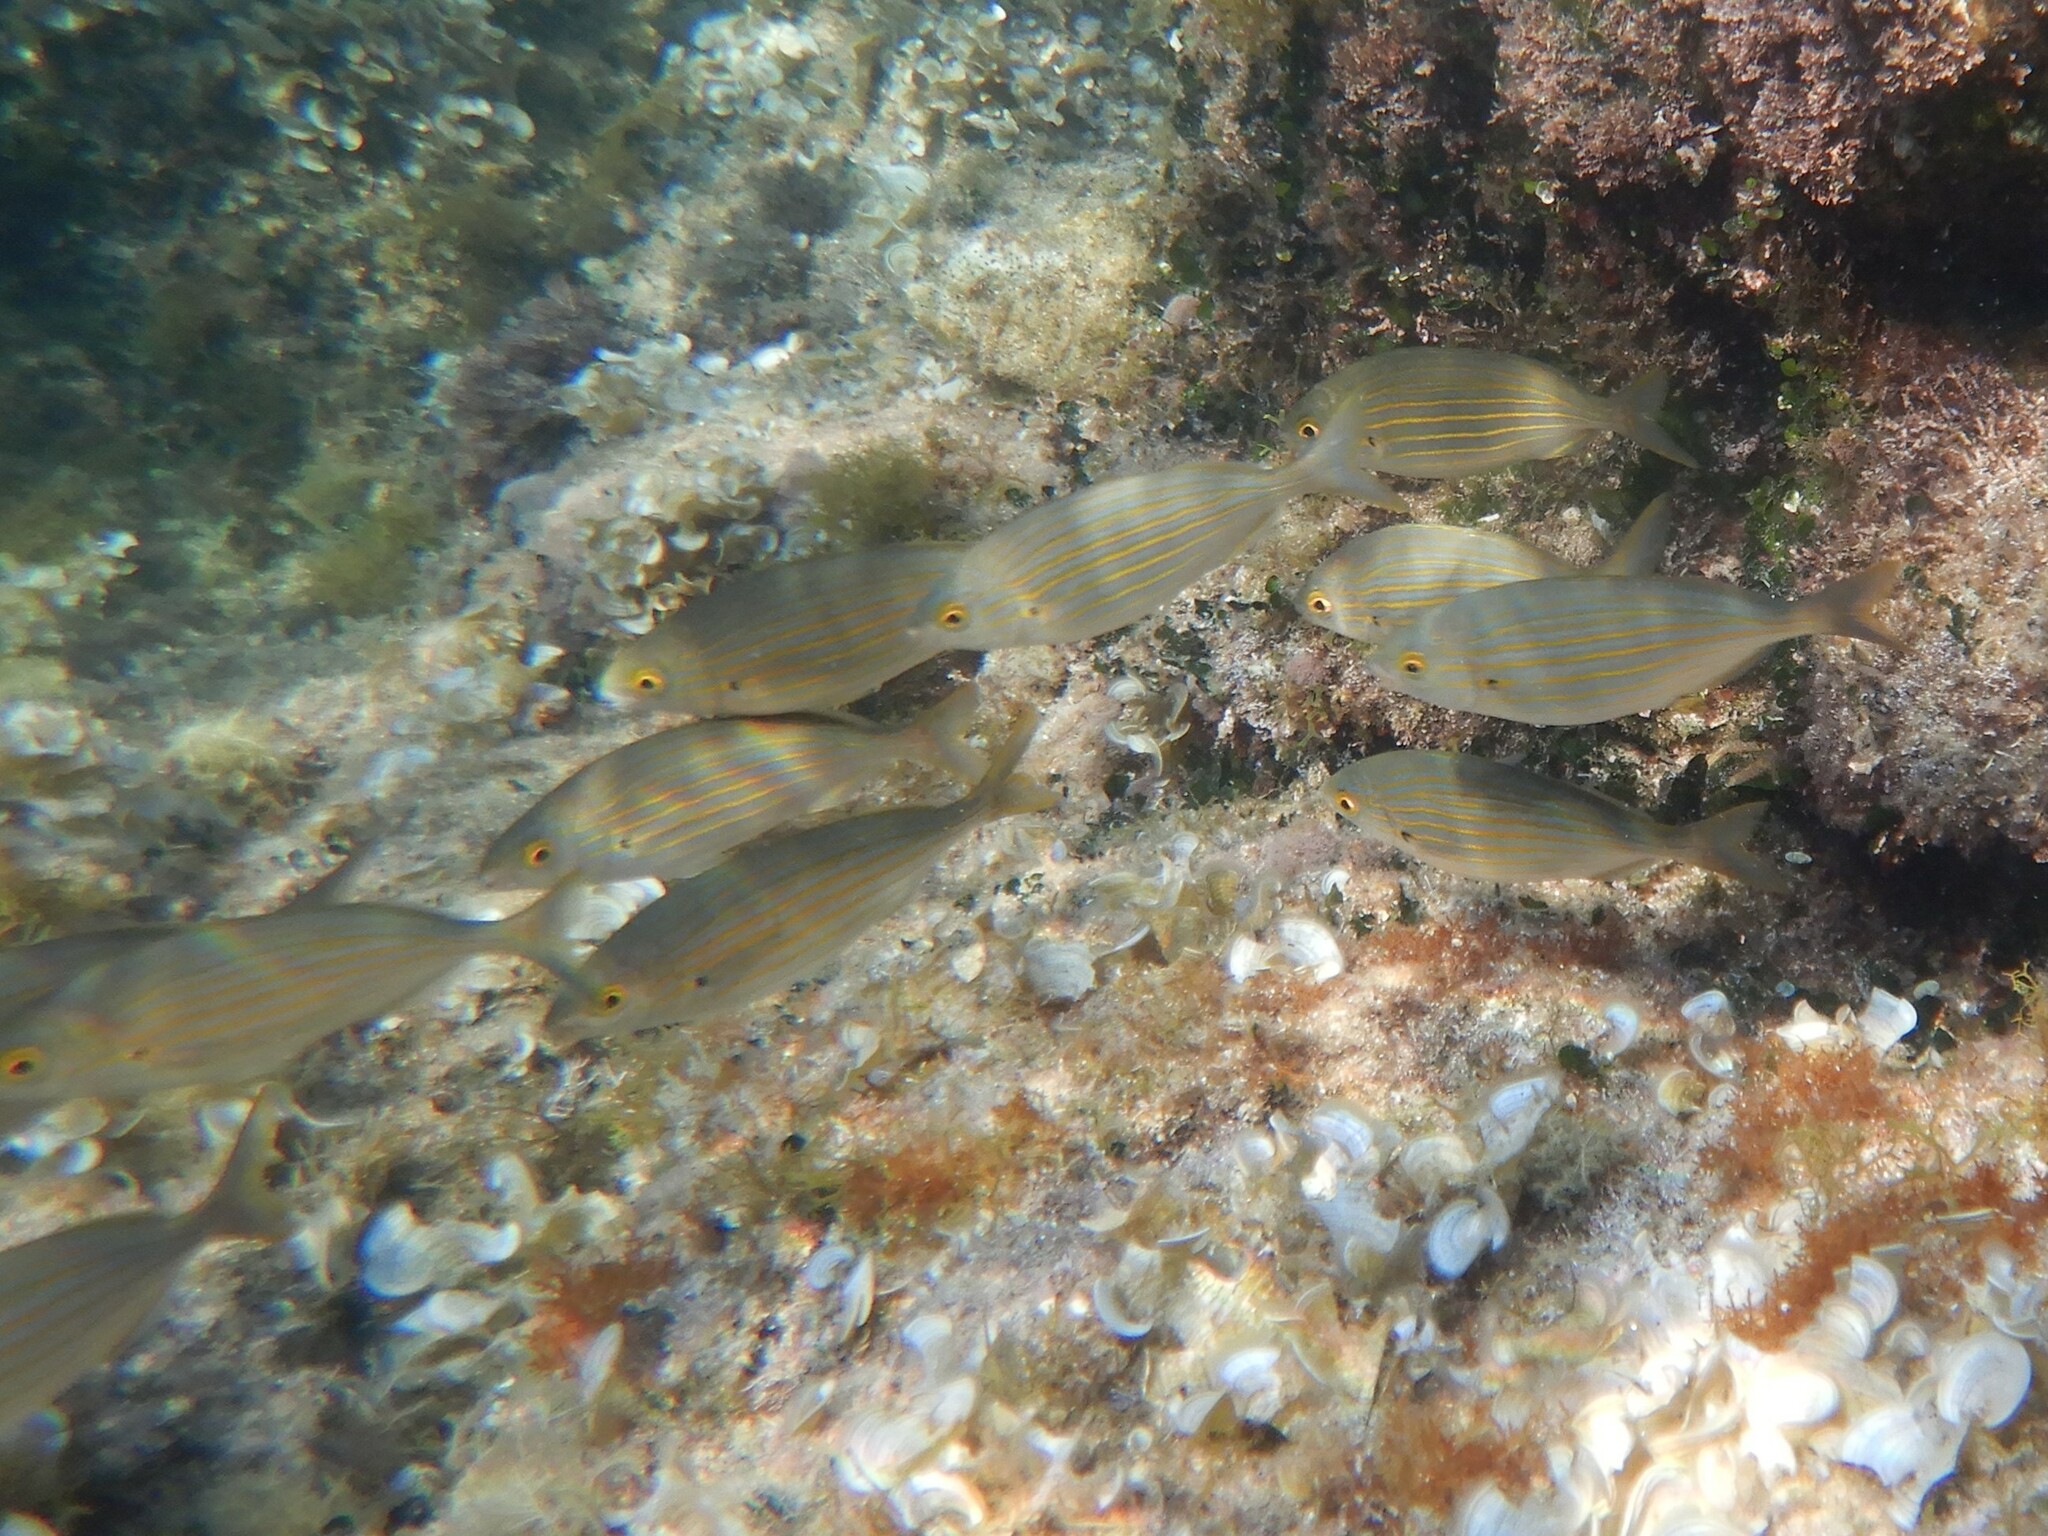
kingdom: Animalia
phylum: Chordata
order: Perciformes
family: Sparidae
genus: Sarpa
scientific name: Sarpa salpa
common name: Salema
